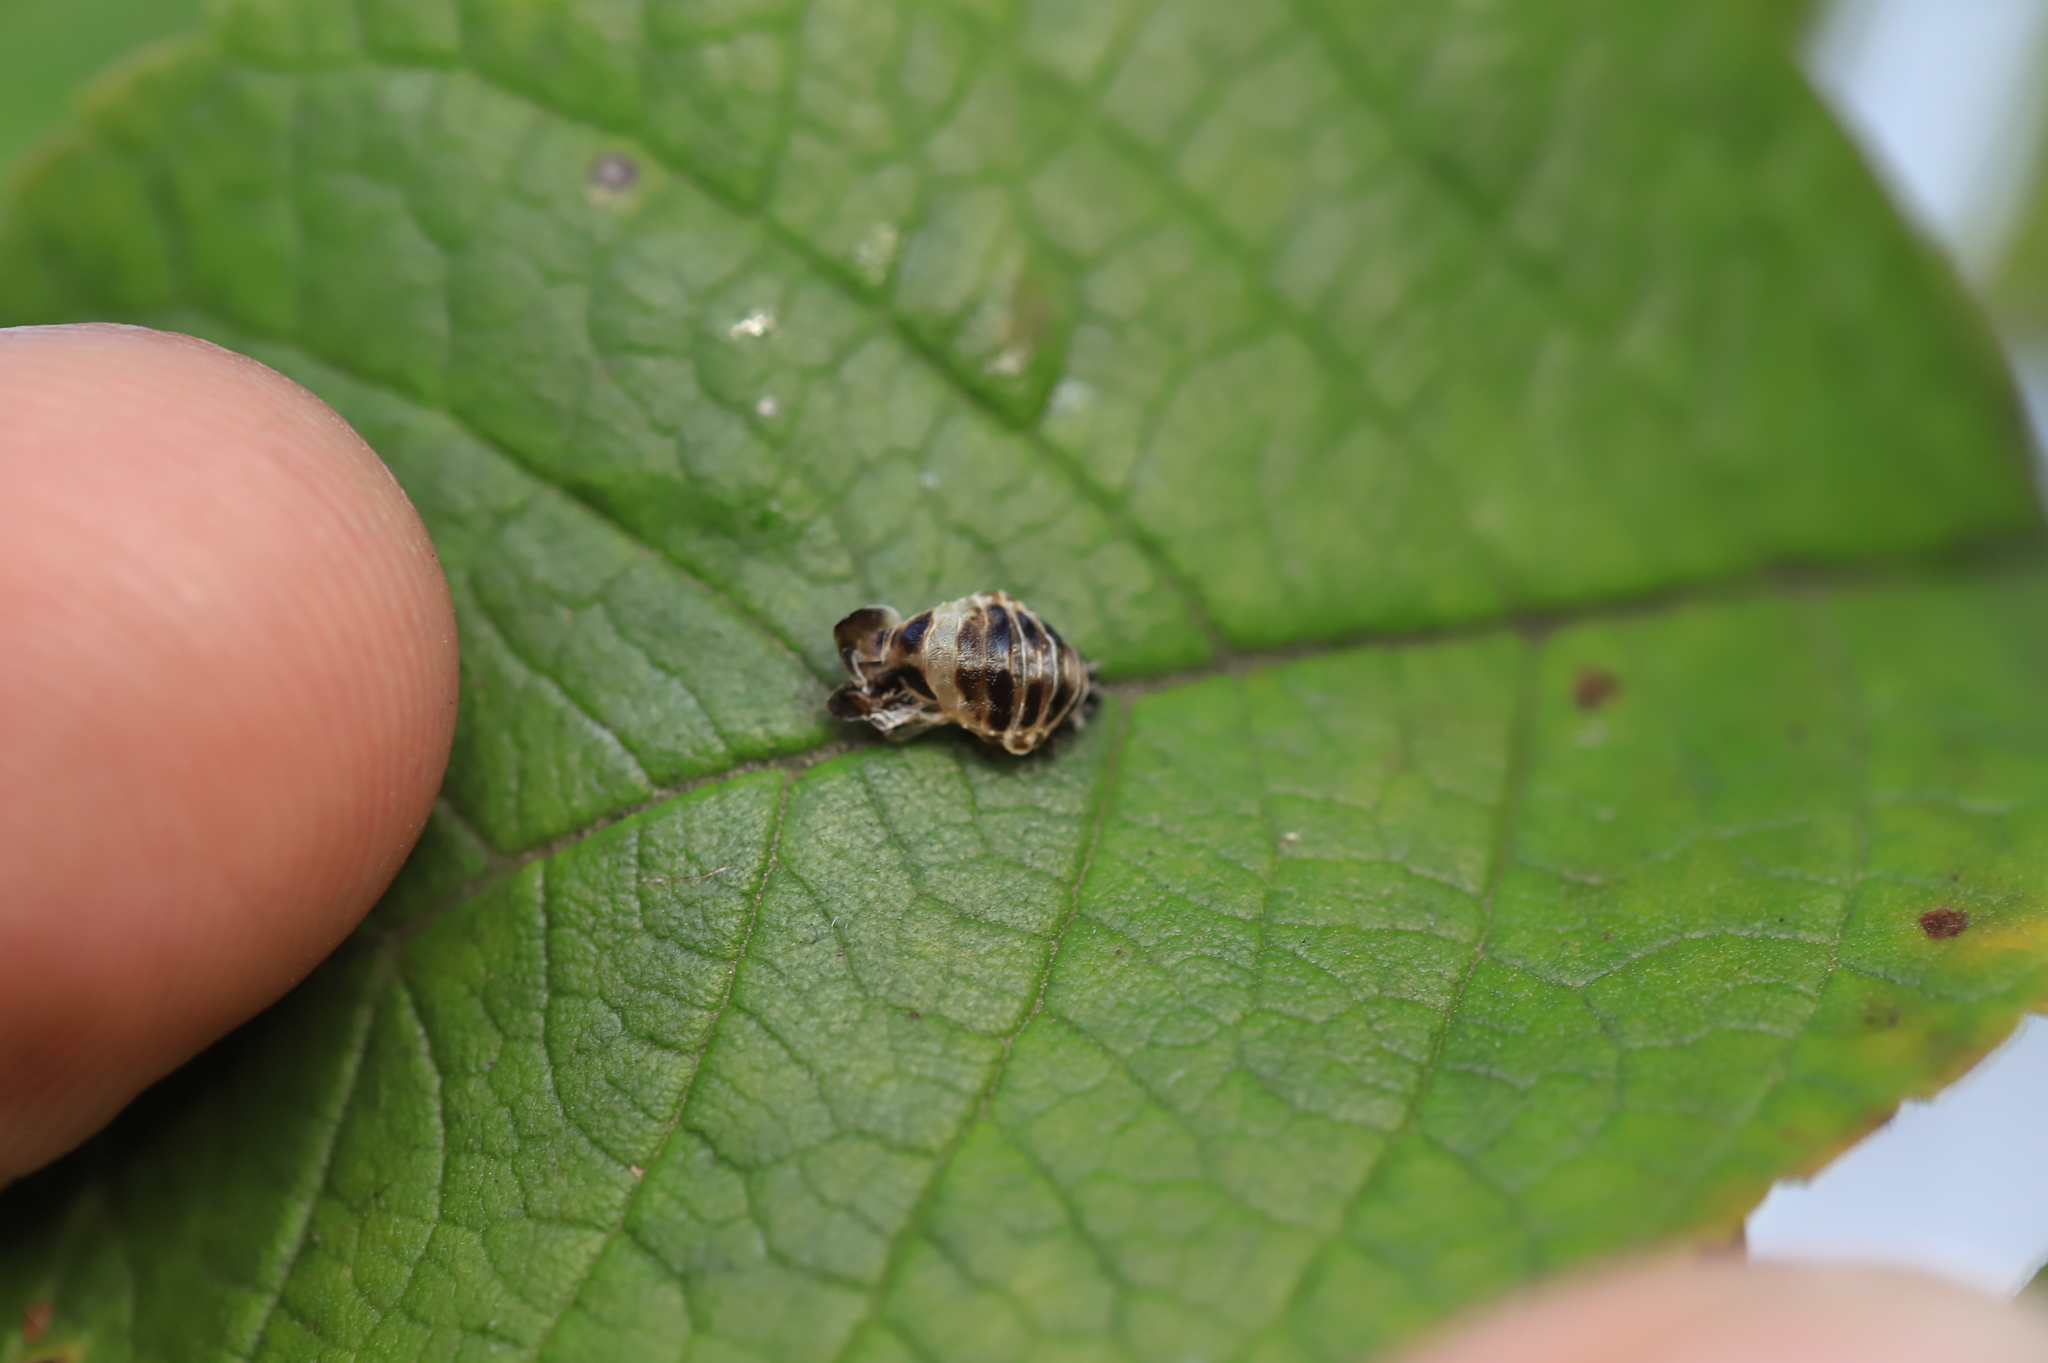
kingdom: Animalia
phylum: Arthropoda
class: Insecta
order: Coleoptera
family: Coccinellidae
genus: Harmonia
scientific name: Harmonia axyridis
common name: Harlequin ladybird
